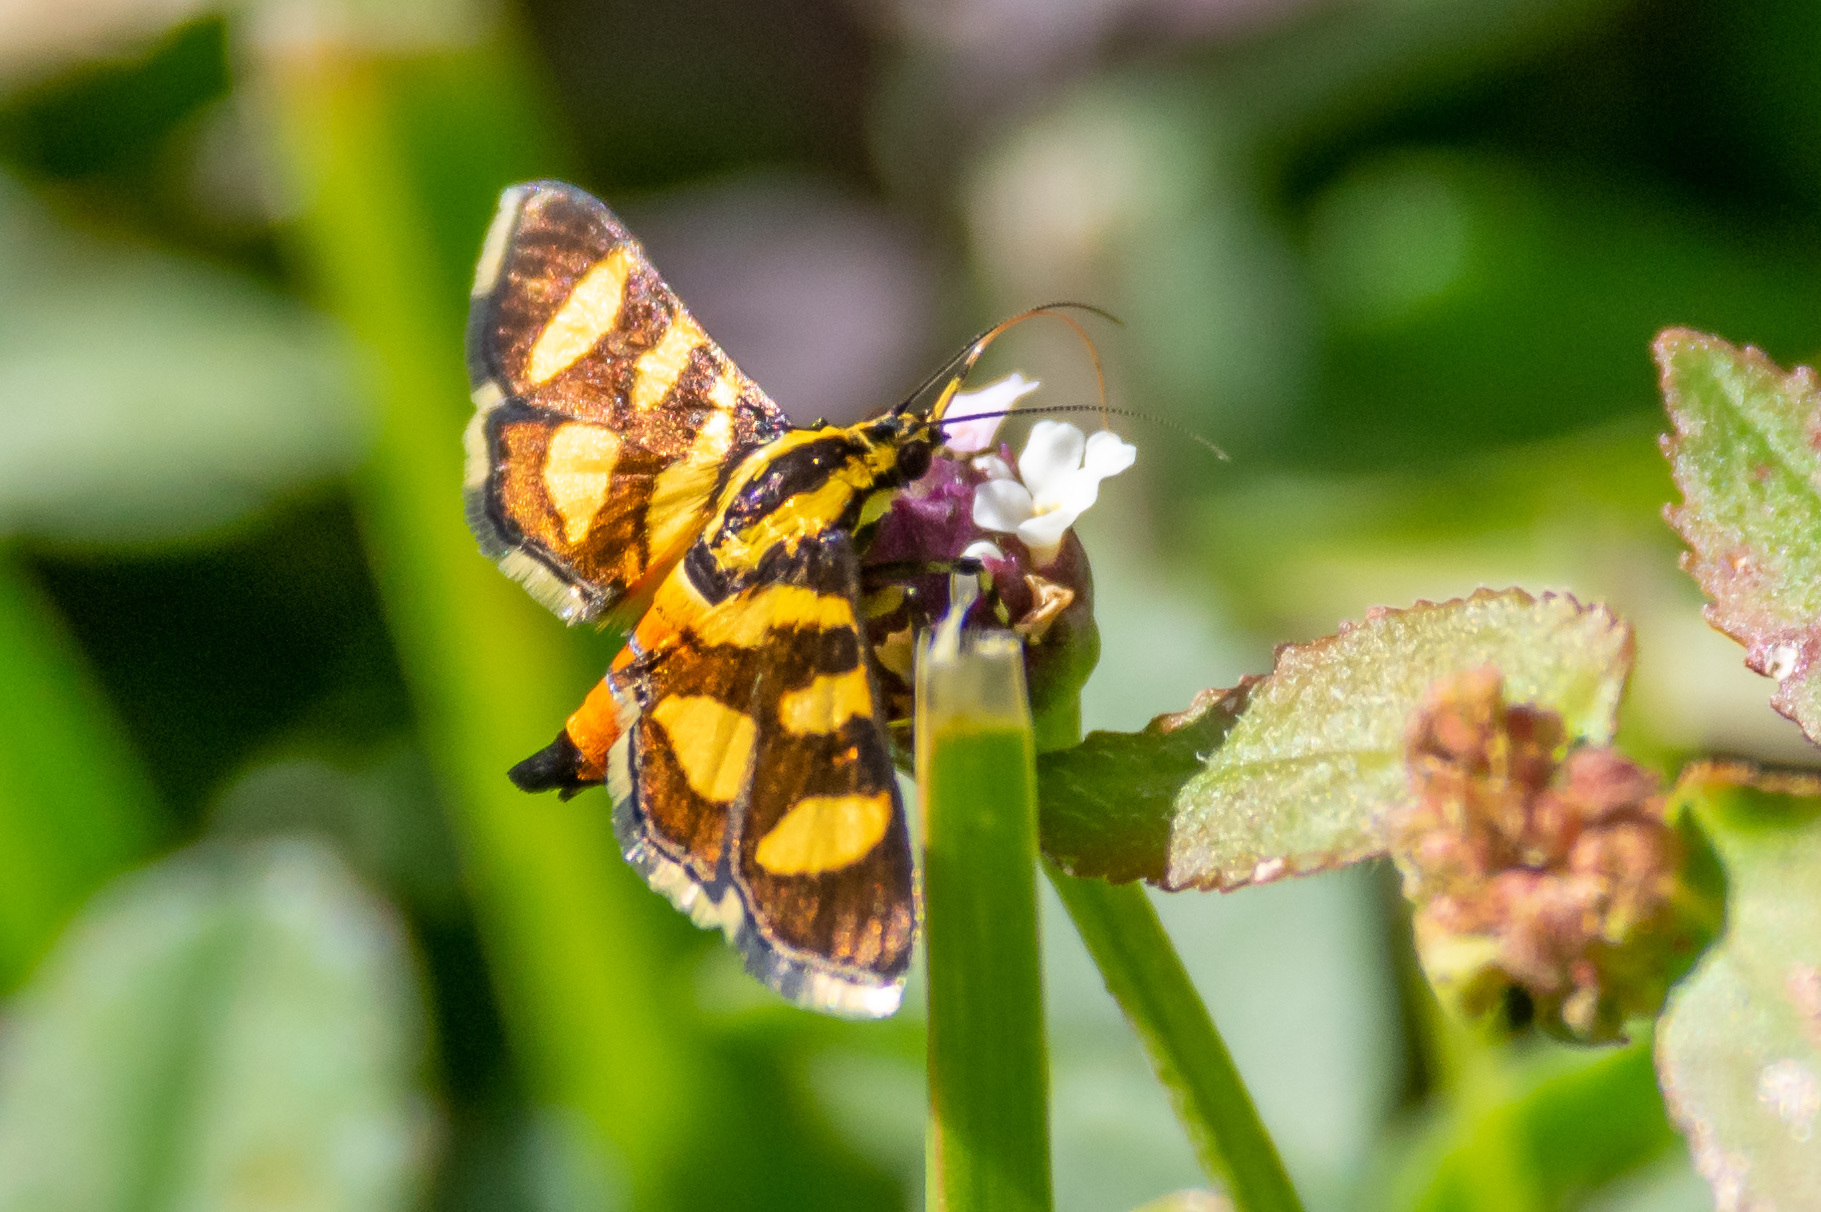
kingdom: Animalia
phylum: Arthropoda
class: Insecta
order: Lepidoptera
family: Crambidae
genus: Syngamia
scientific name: Syngamia florella
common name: Orange-spotted flower moth
